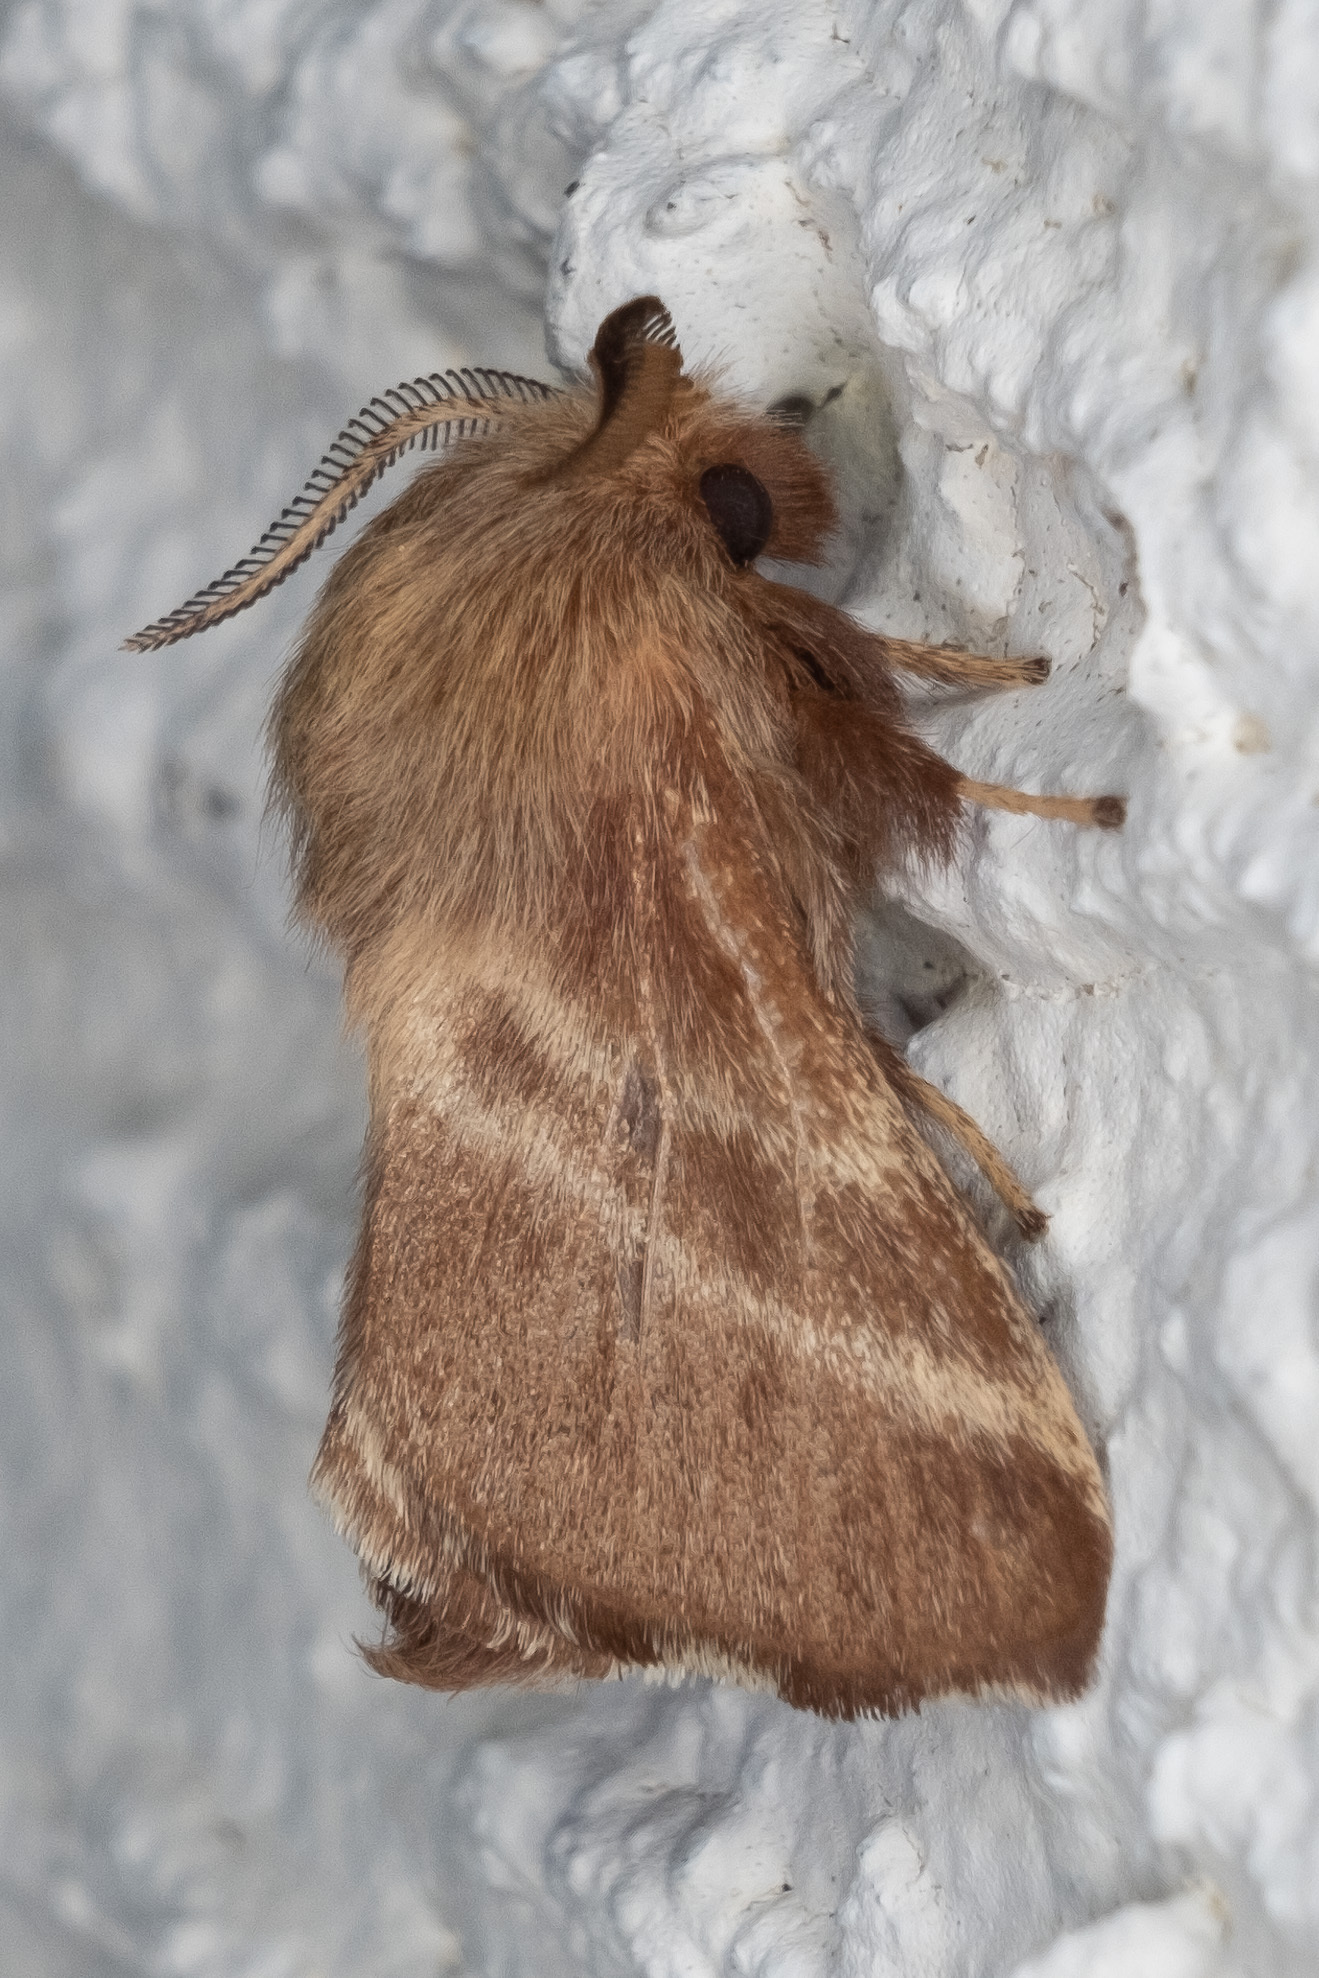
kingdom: Animalia
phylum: Arthropoda
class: Insecta
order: Lepidoptera
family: Lasiocampidae
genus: Malacosoma
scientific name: Malacosoma americana
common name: Eastern tent caterpillar moth
